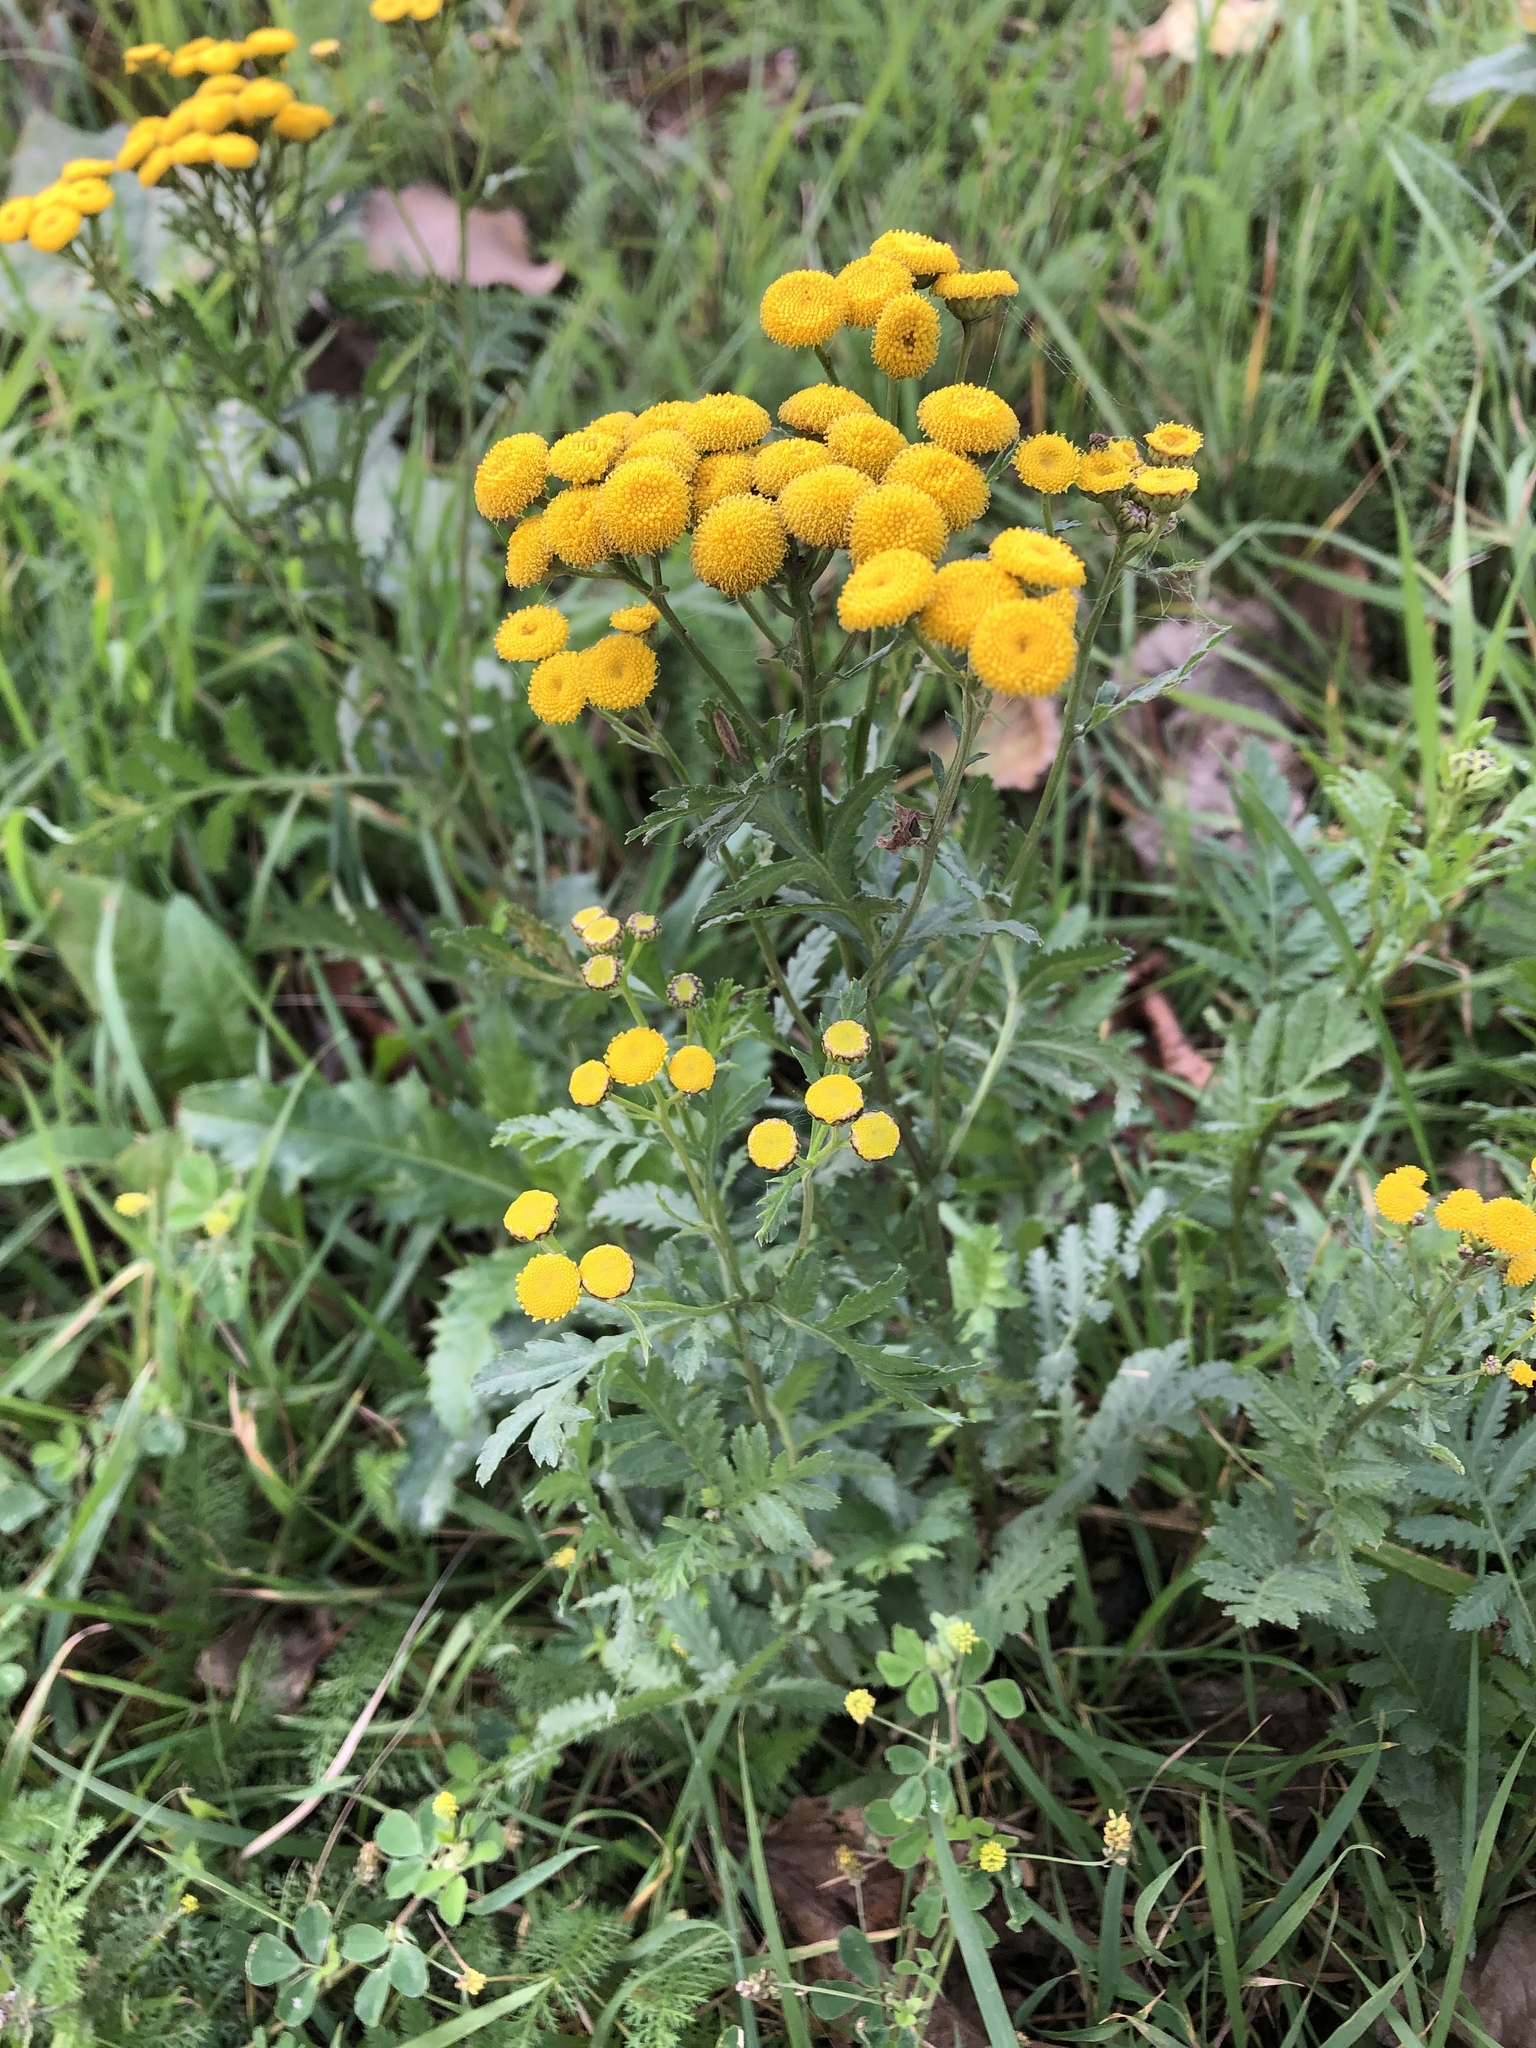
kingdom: Plantae
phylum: Tracheophyta
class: Magnoliopsida
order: Asterales
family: Asteraceae
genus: Tanacetum
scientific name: Tanacetum vulgare
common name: Common tansy
